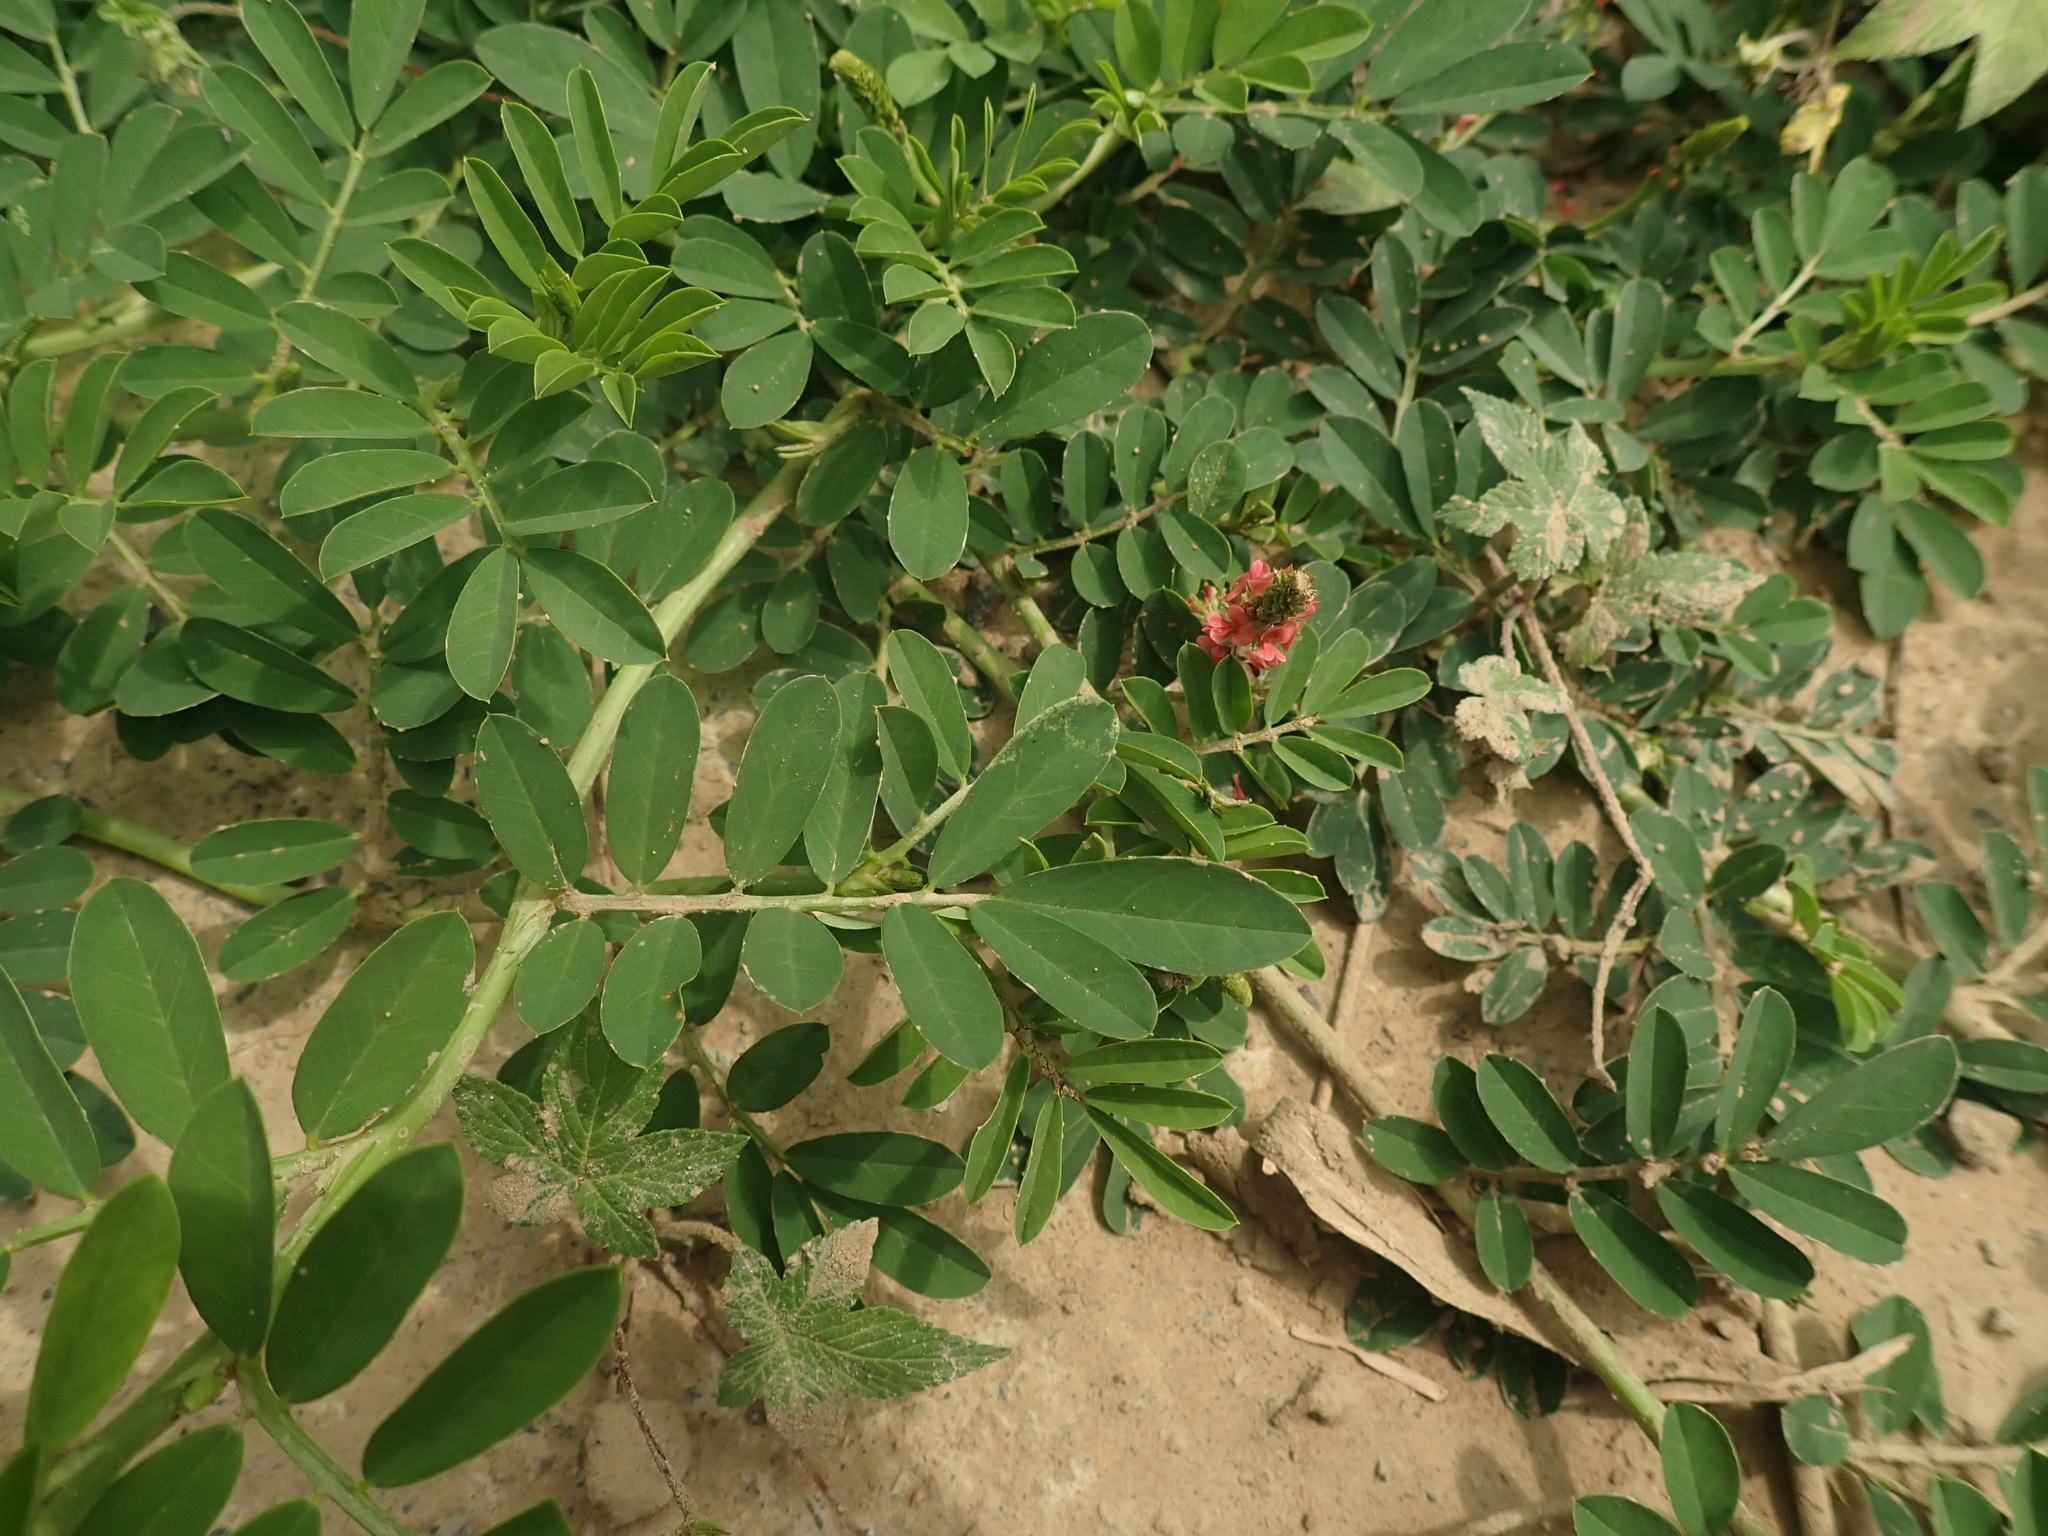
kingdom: Plantae
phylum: Tracheophyta
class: Magnoliopsida
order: Fabales
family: Fabaceae
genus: Indigofera
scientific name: Indigofera spicata
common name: Creeping indigo
